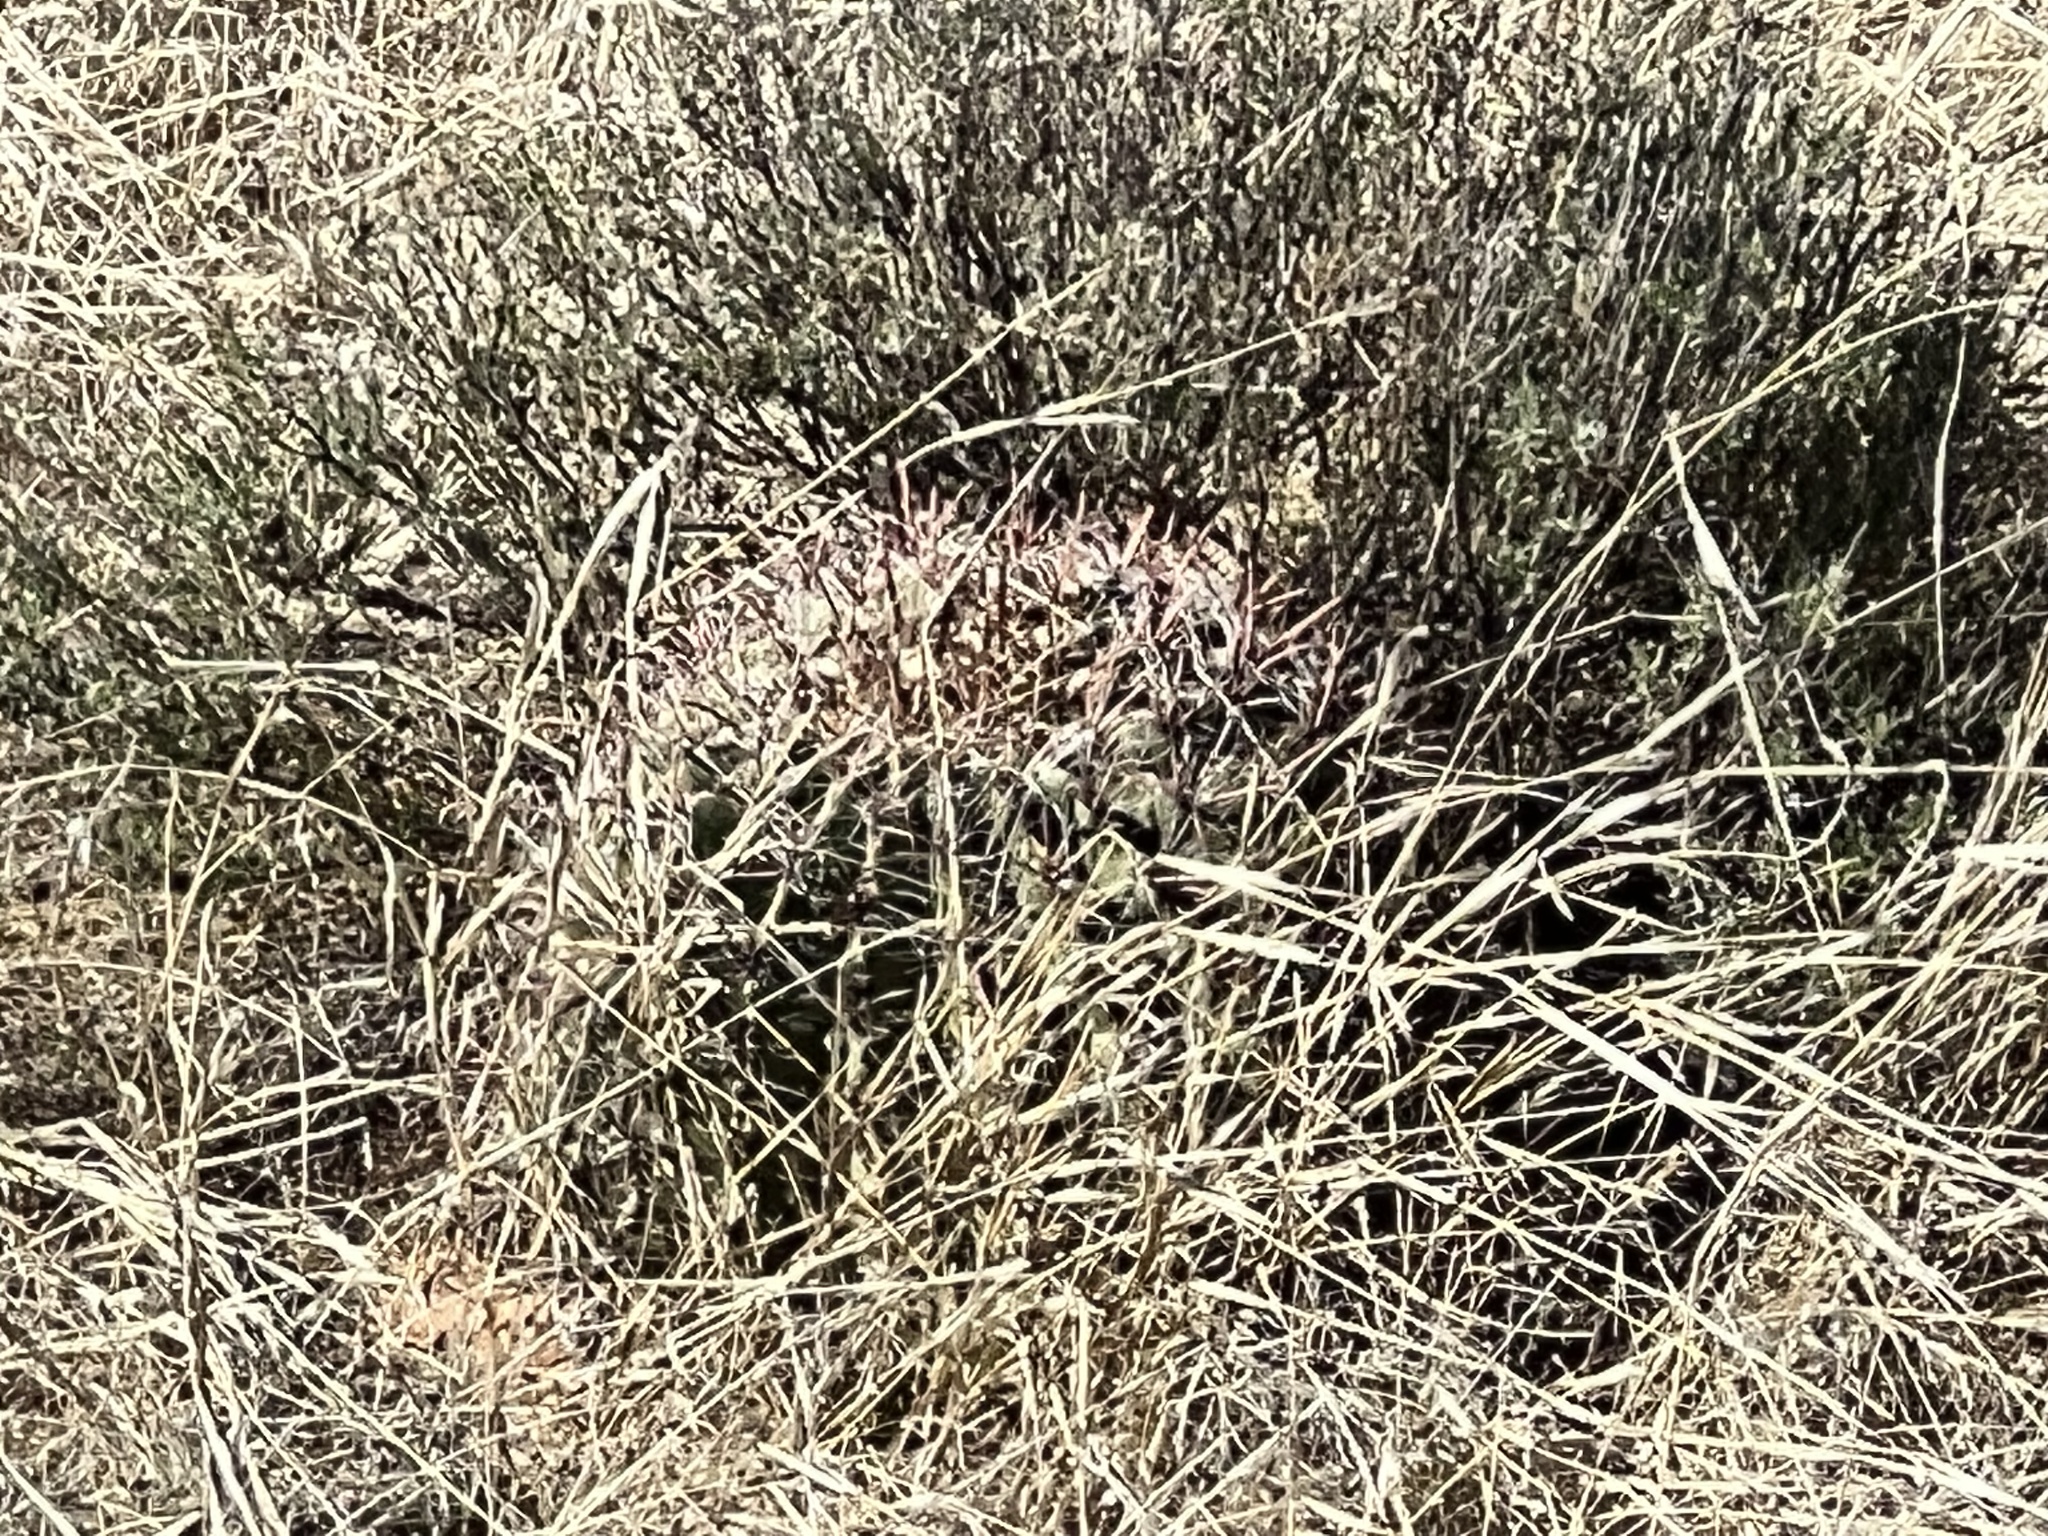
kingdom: Plantae
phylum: Tracheophyta
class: Magnoliopsida
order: Caryophyllales
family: Cactaceae
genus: Ferocactus
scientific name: Ferocactus wislizeni
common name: Candy barrel cactus
